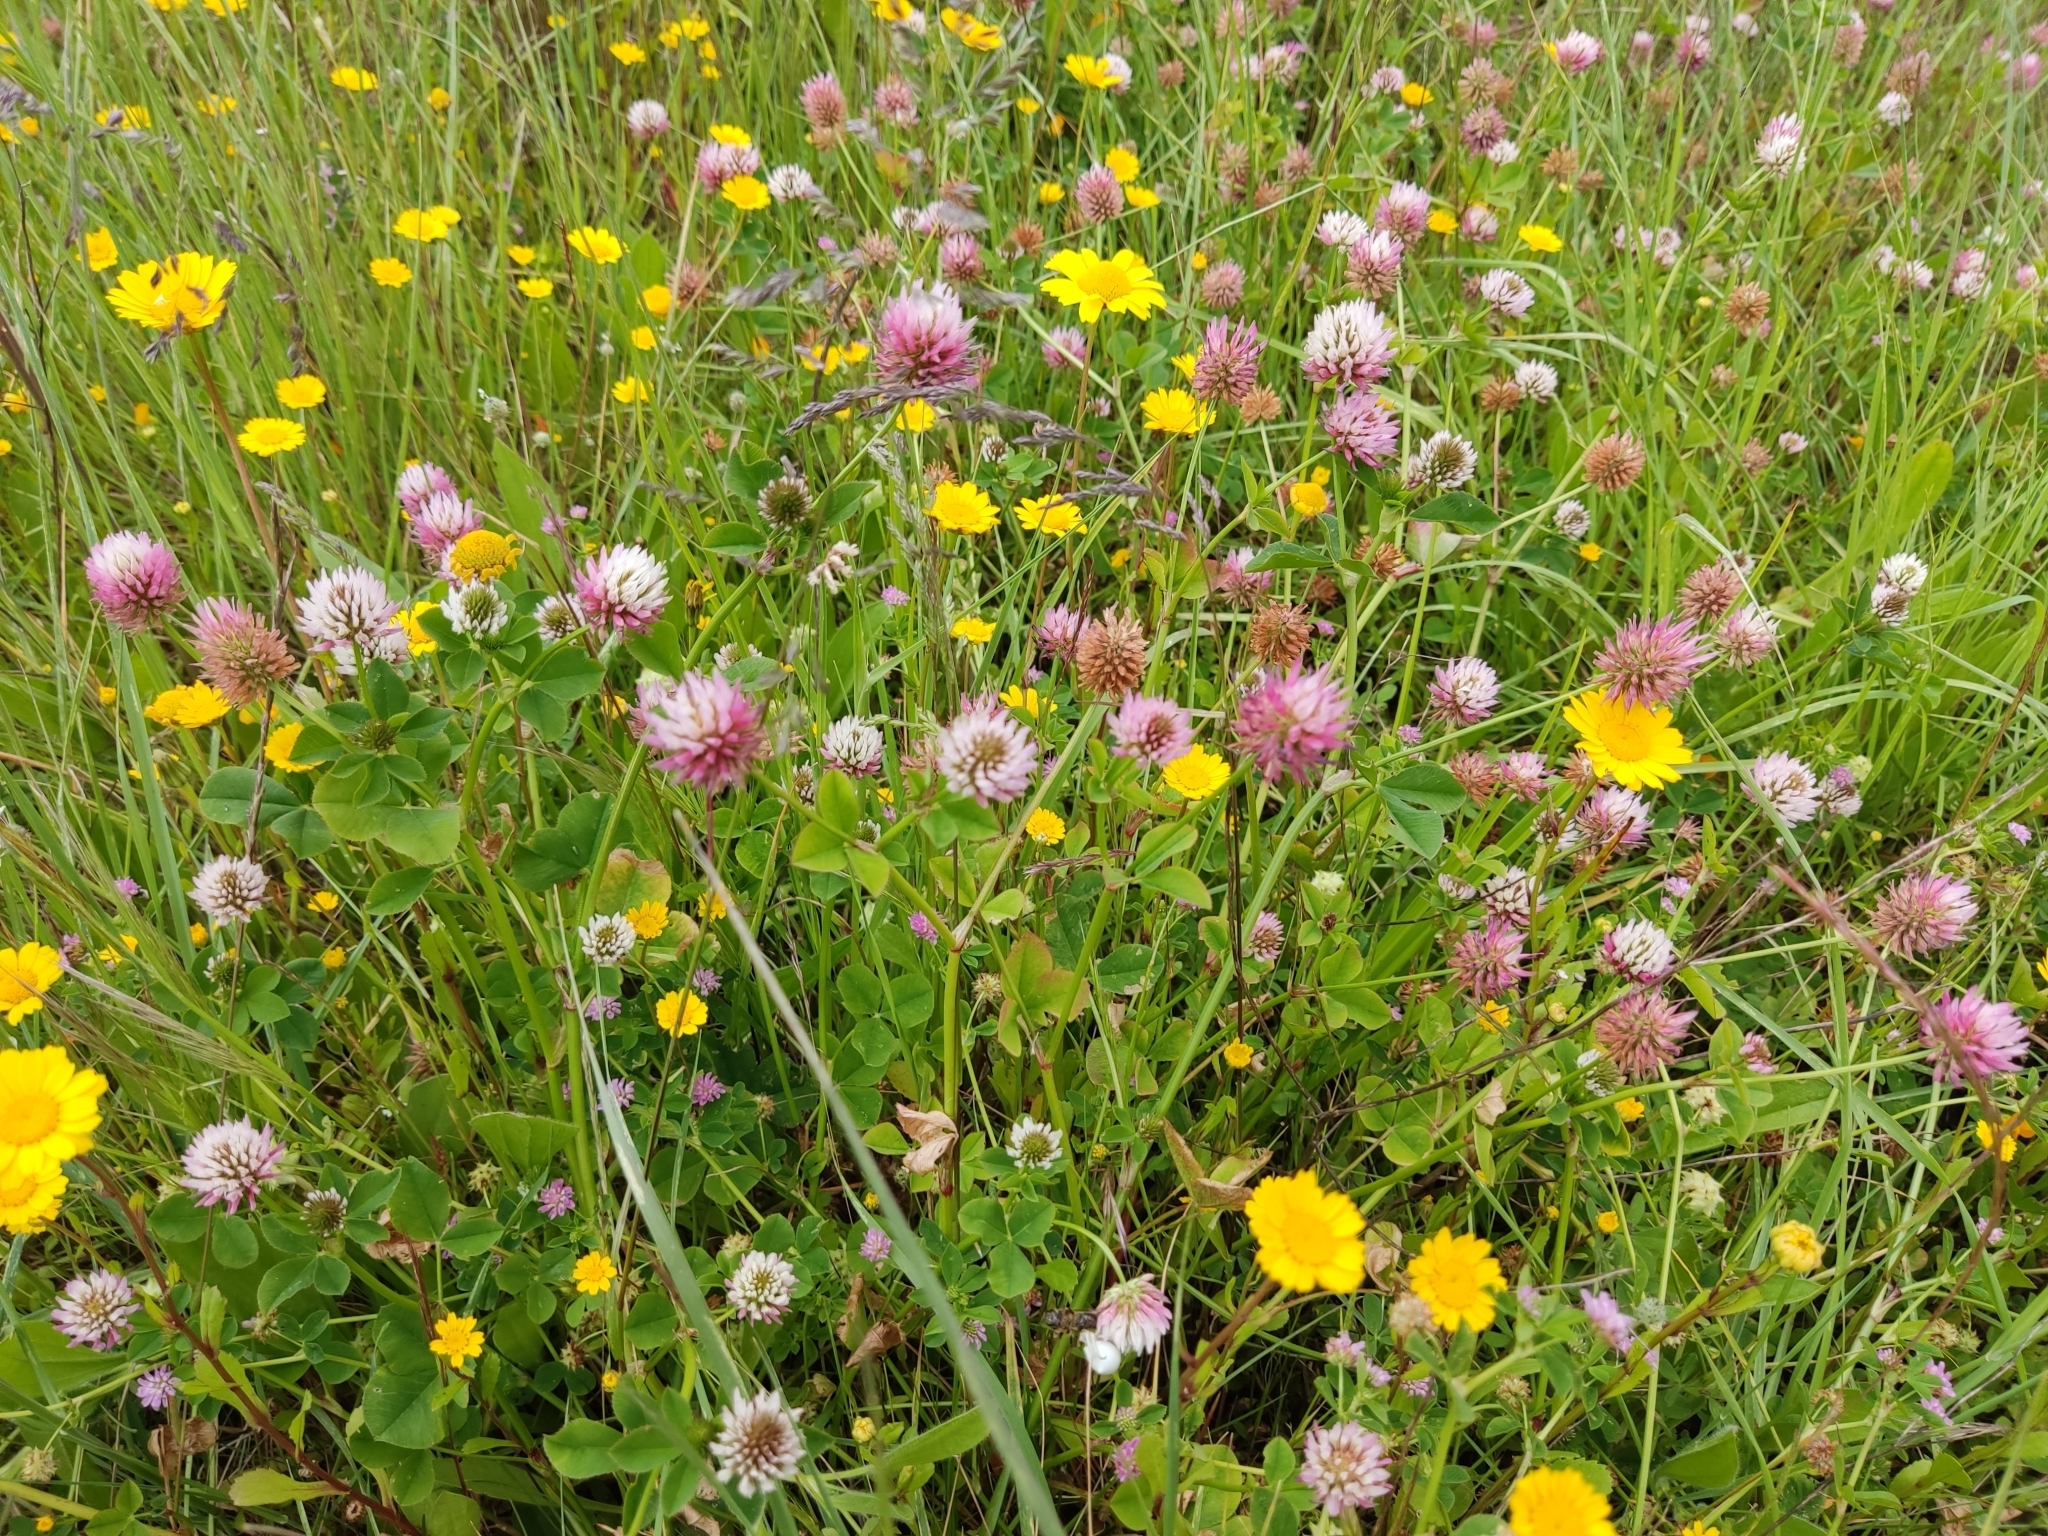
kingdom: Plantae
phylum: Tracheophyta
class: Magnoliopsida
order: Fabales
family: Fabaceae
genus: Trifolium
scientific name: Trifolium isthmocarpum
